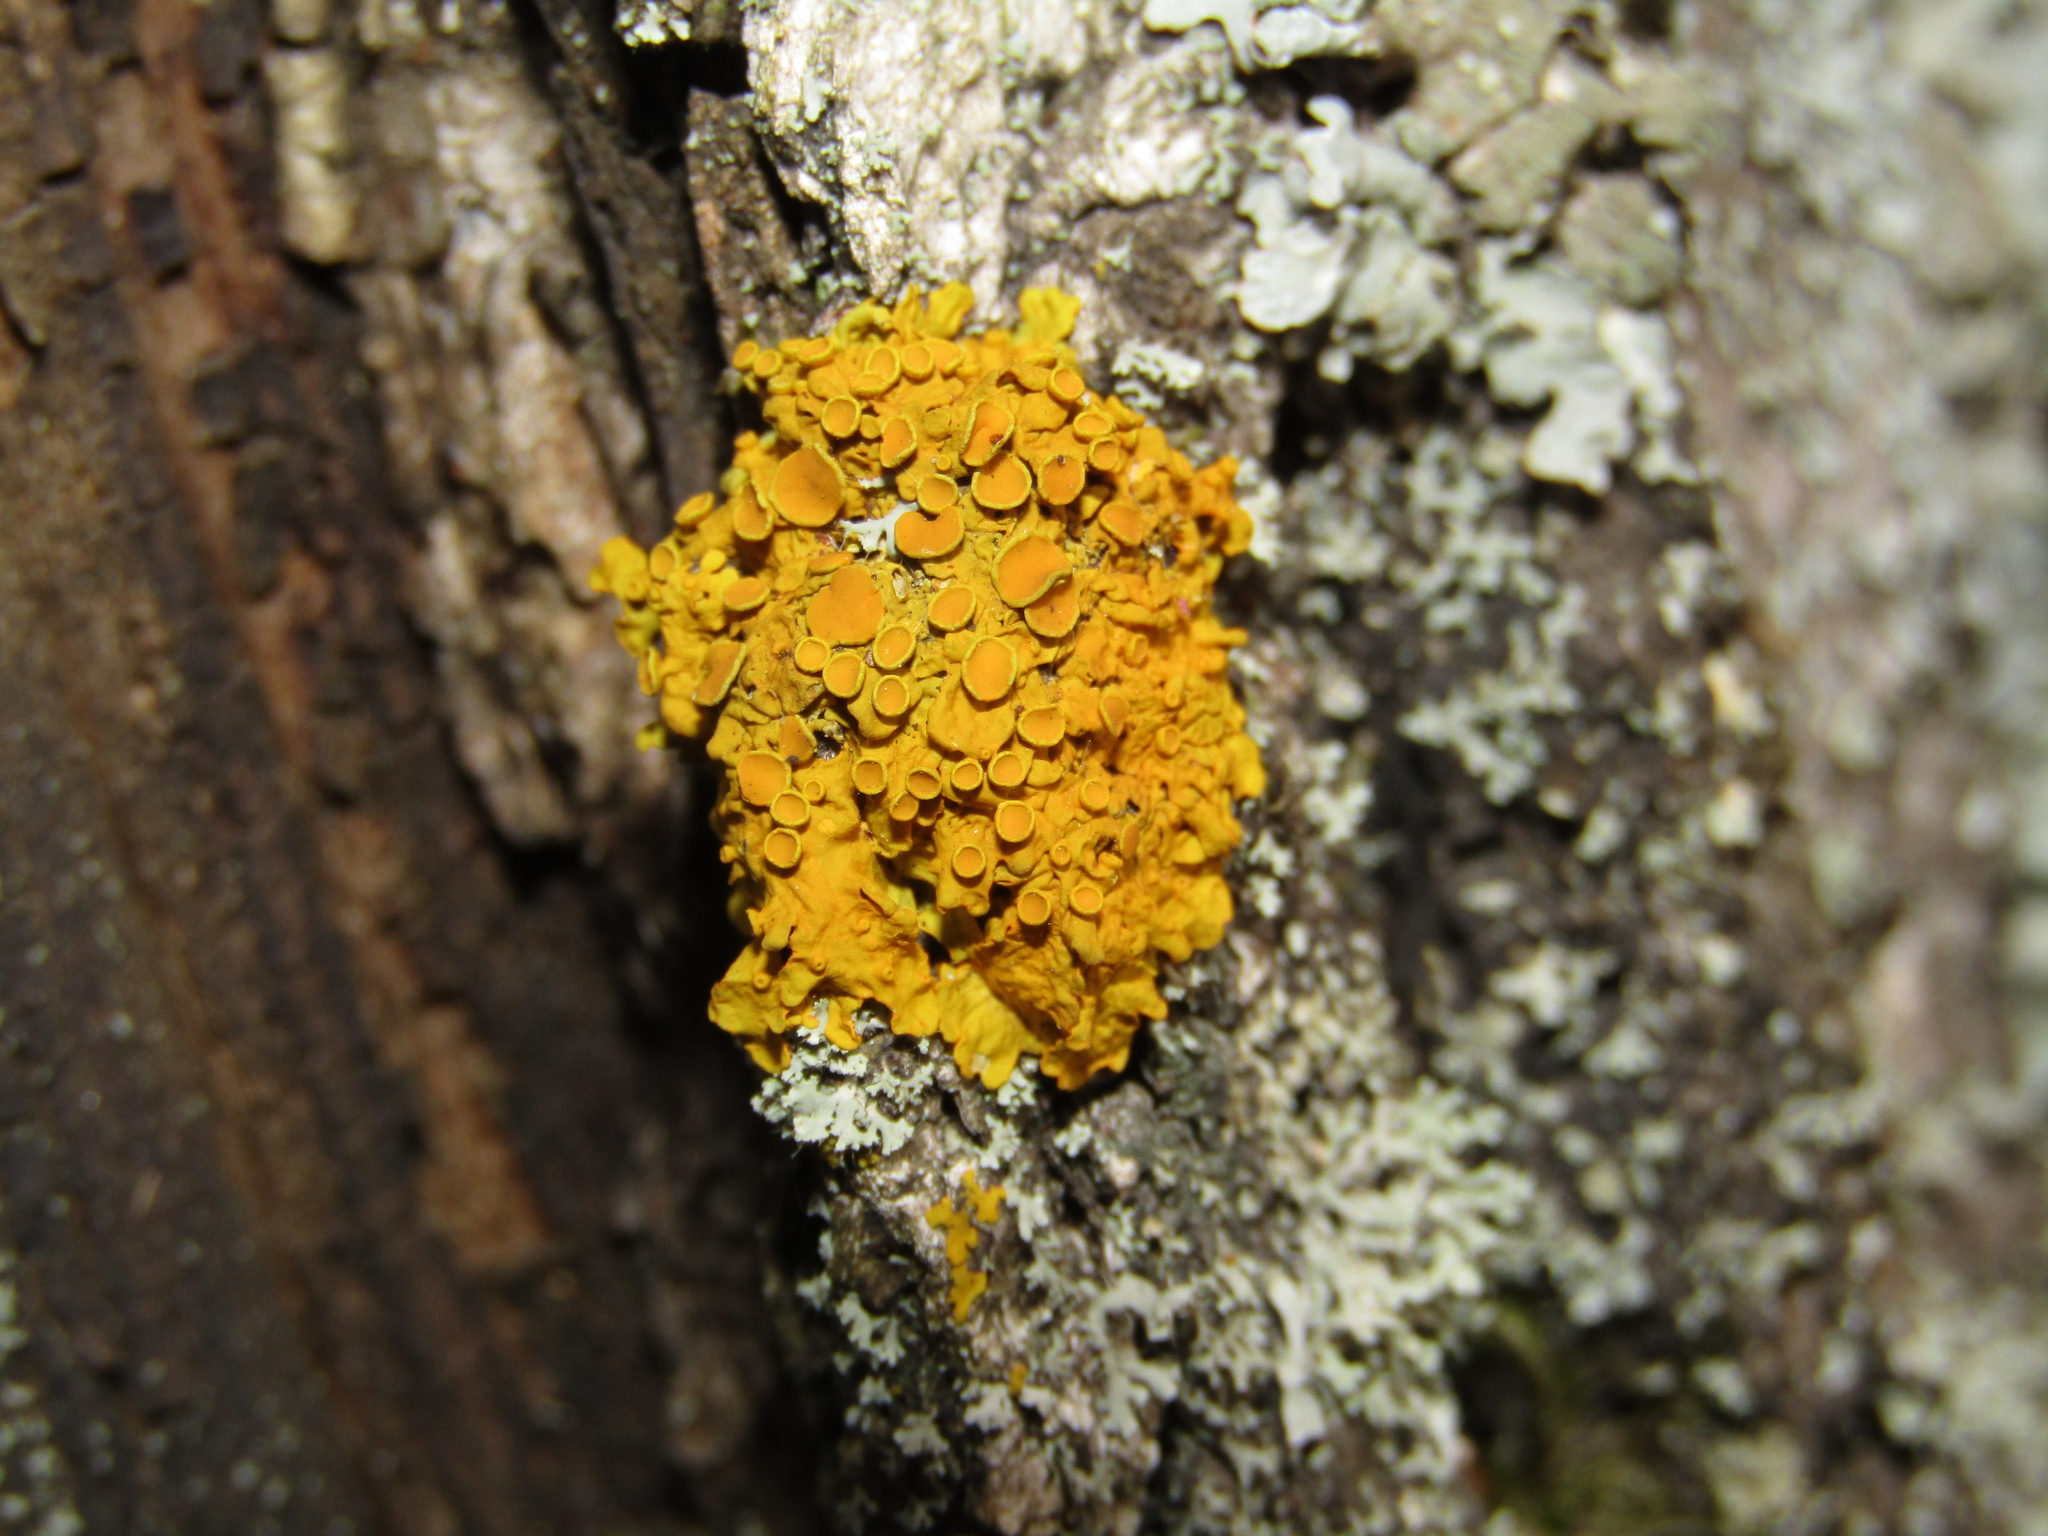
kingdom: Fungi
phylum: Ascomycota
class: Lecanoromycetes
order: Teloschistales
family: Teloschistaceae
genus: Xanthoria
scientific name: Xanthoria parietina
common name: Common orange lichen
